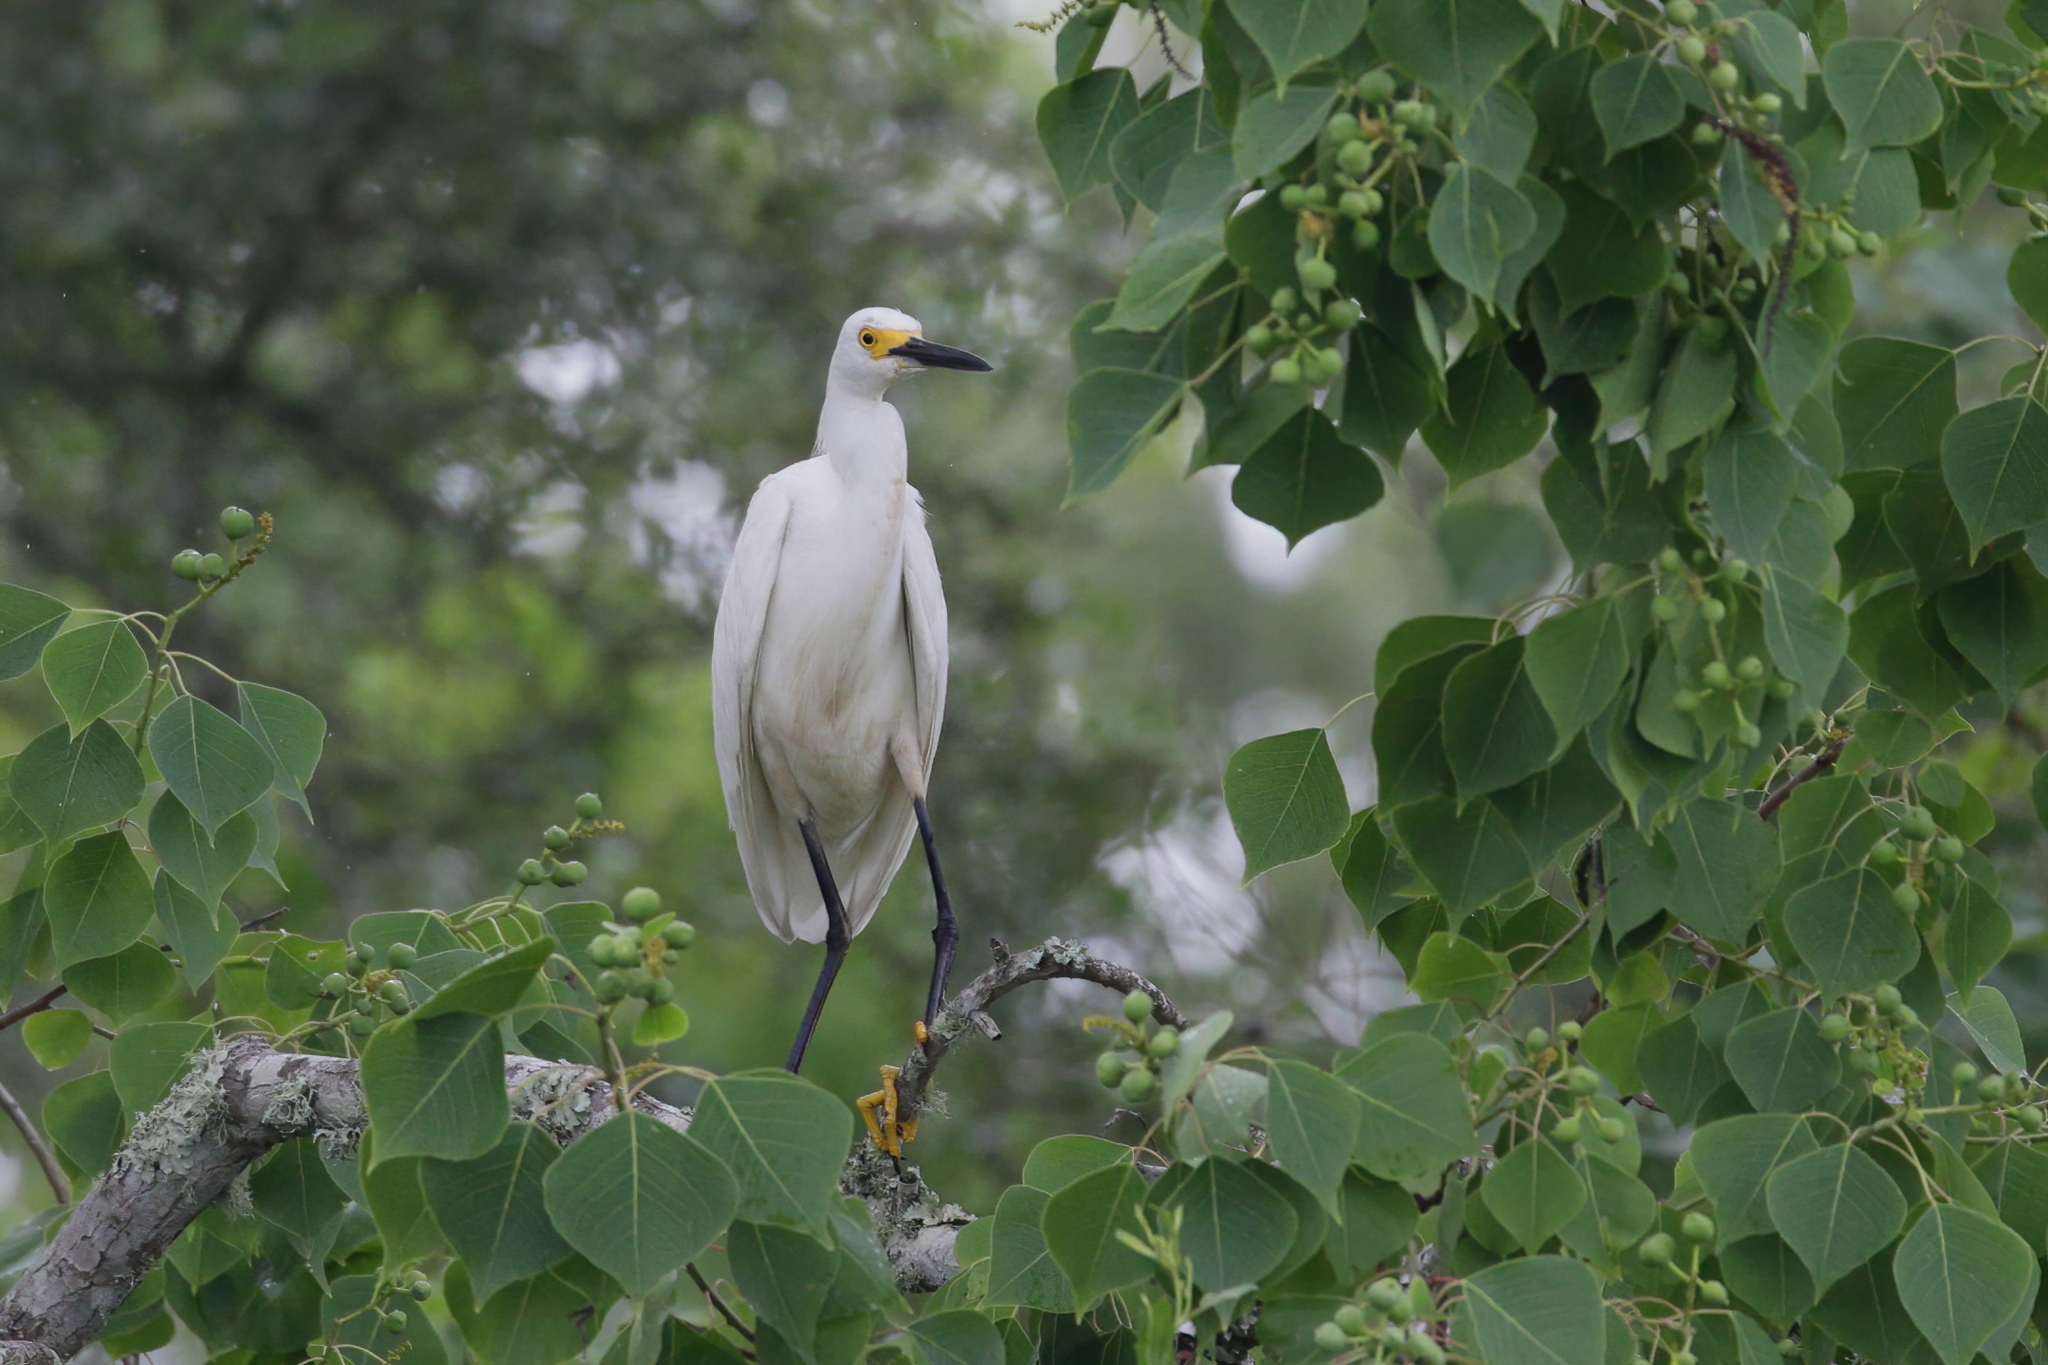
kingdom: Animalia
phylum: Chordata
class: Aves
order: Pelecaniformes
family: Ardeidae
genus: Egretta
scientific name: Egretta thula
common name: Snowy egret
